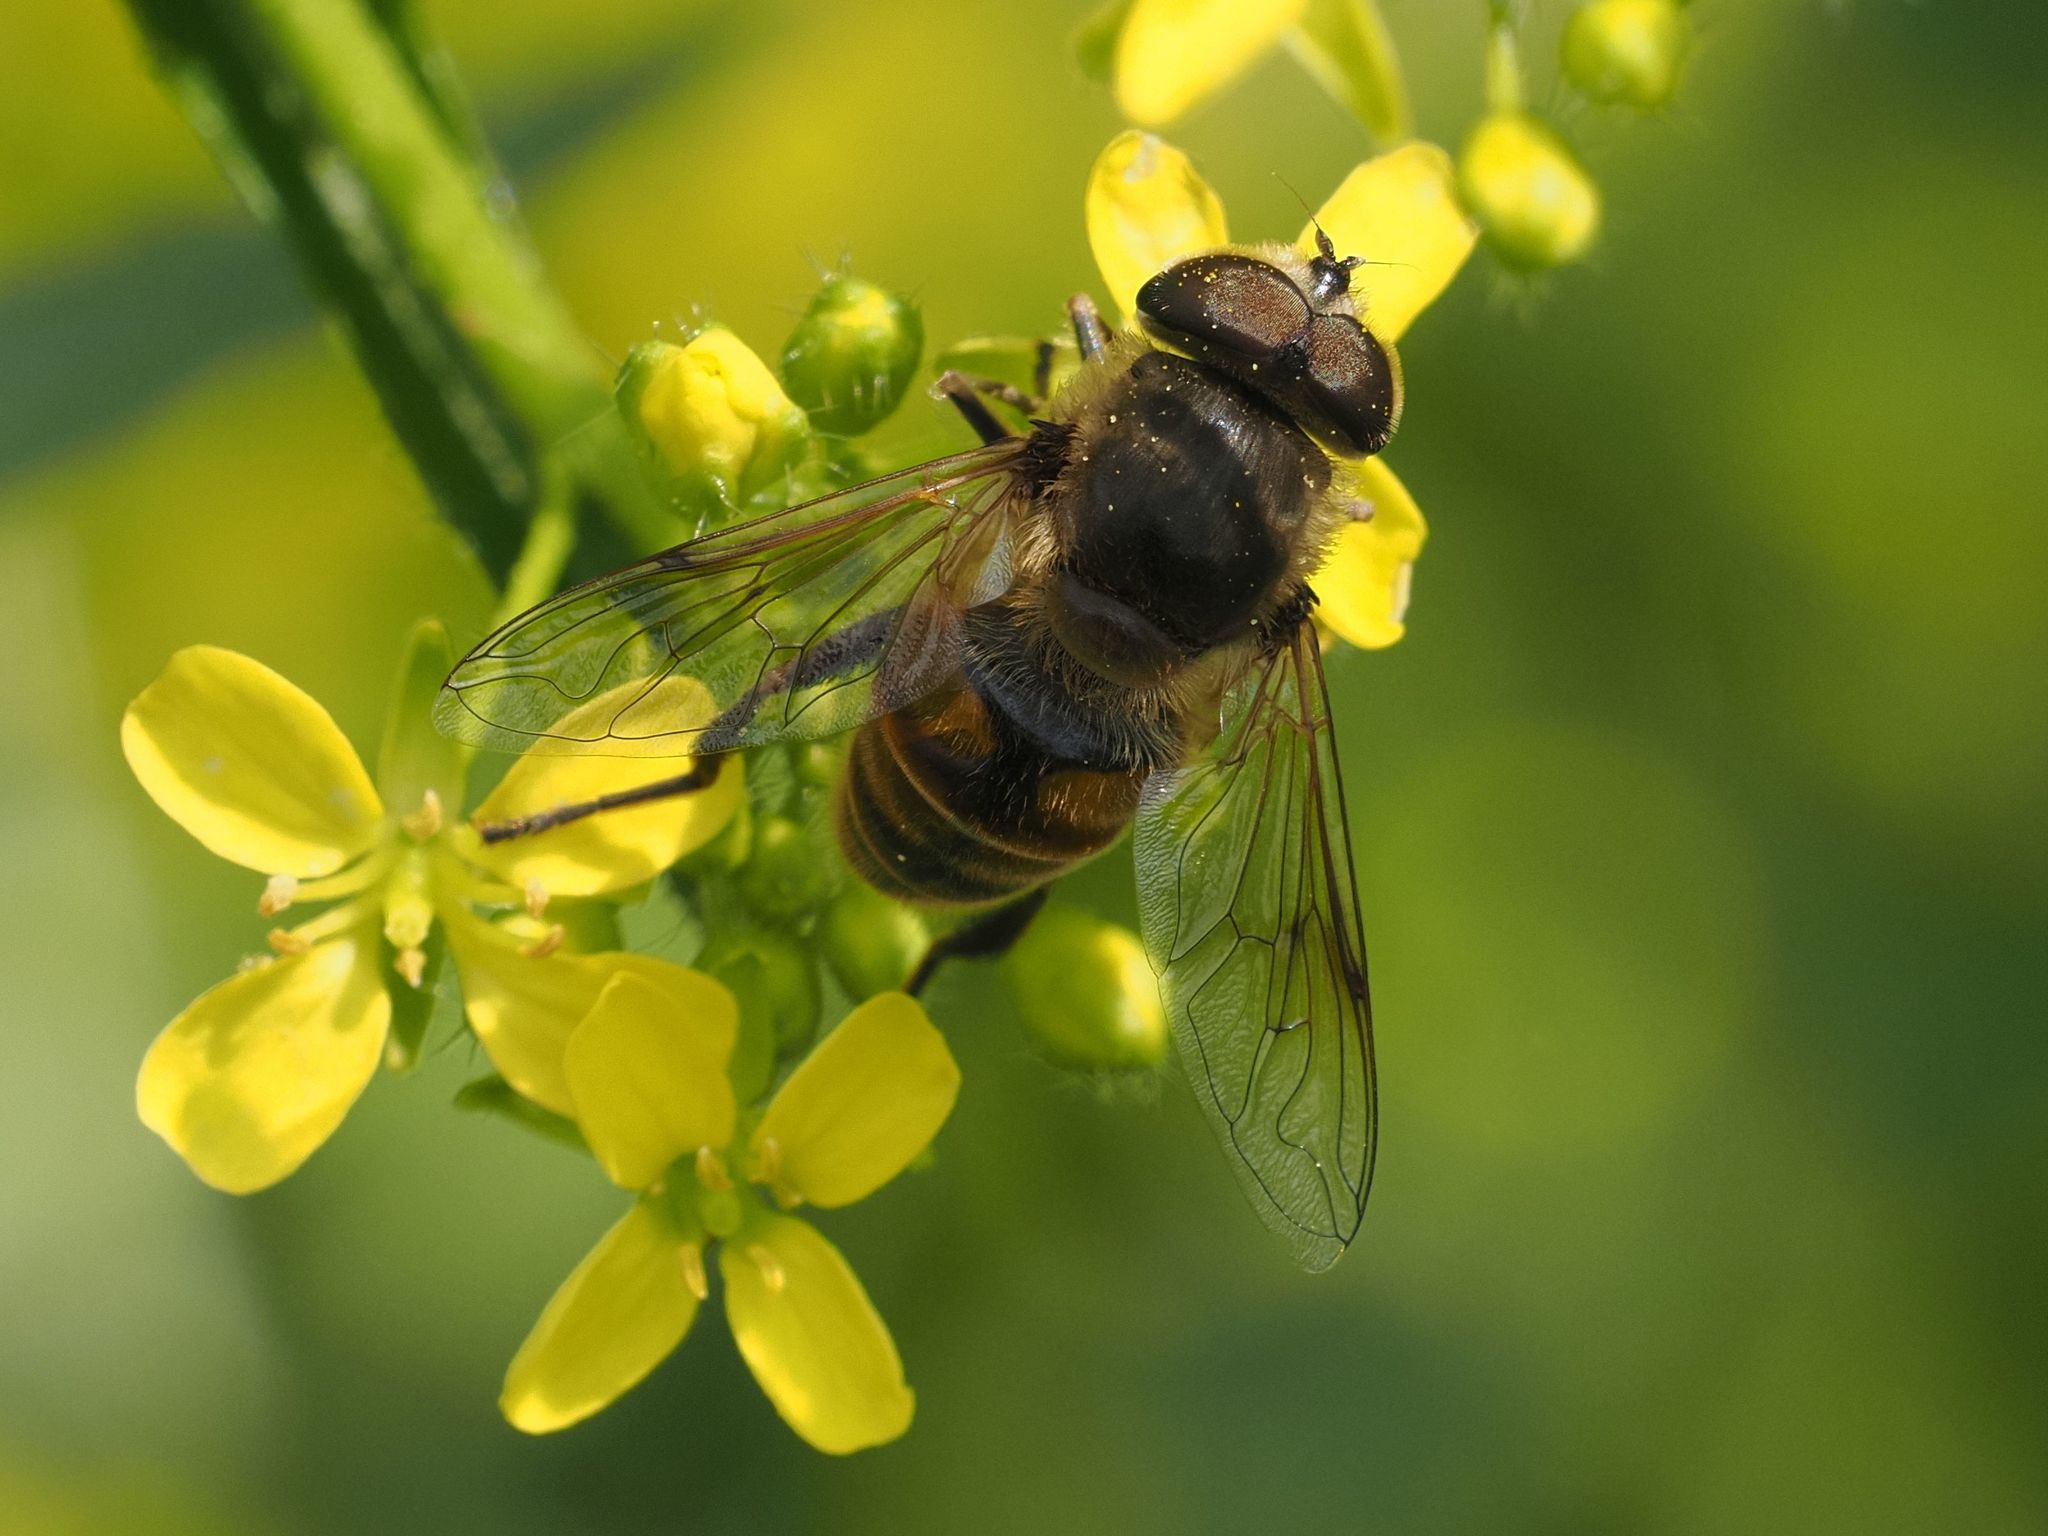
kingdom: Animalia
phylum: Arthropoda
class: Insecta
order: Diptera
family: Syrphidae
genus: Eristalis
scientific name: Eristalis tenax
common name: Drone fly
